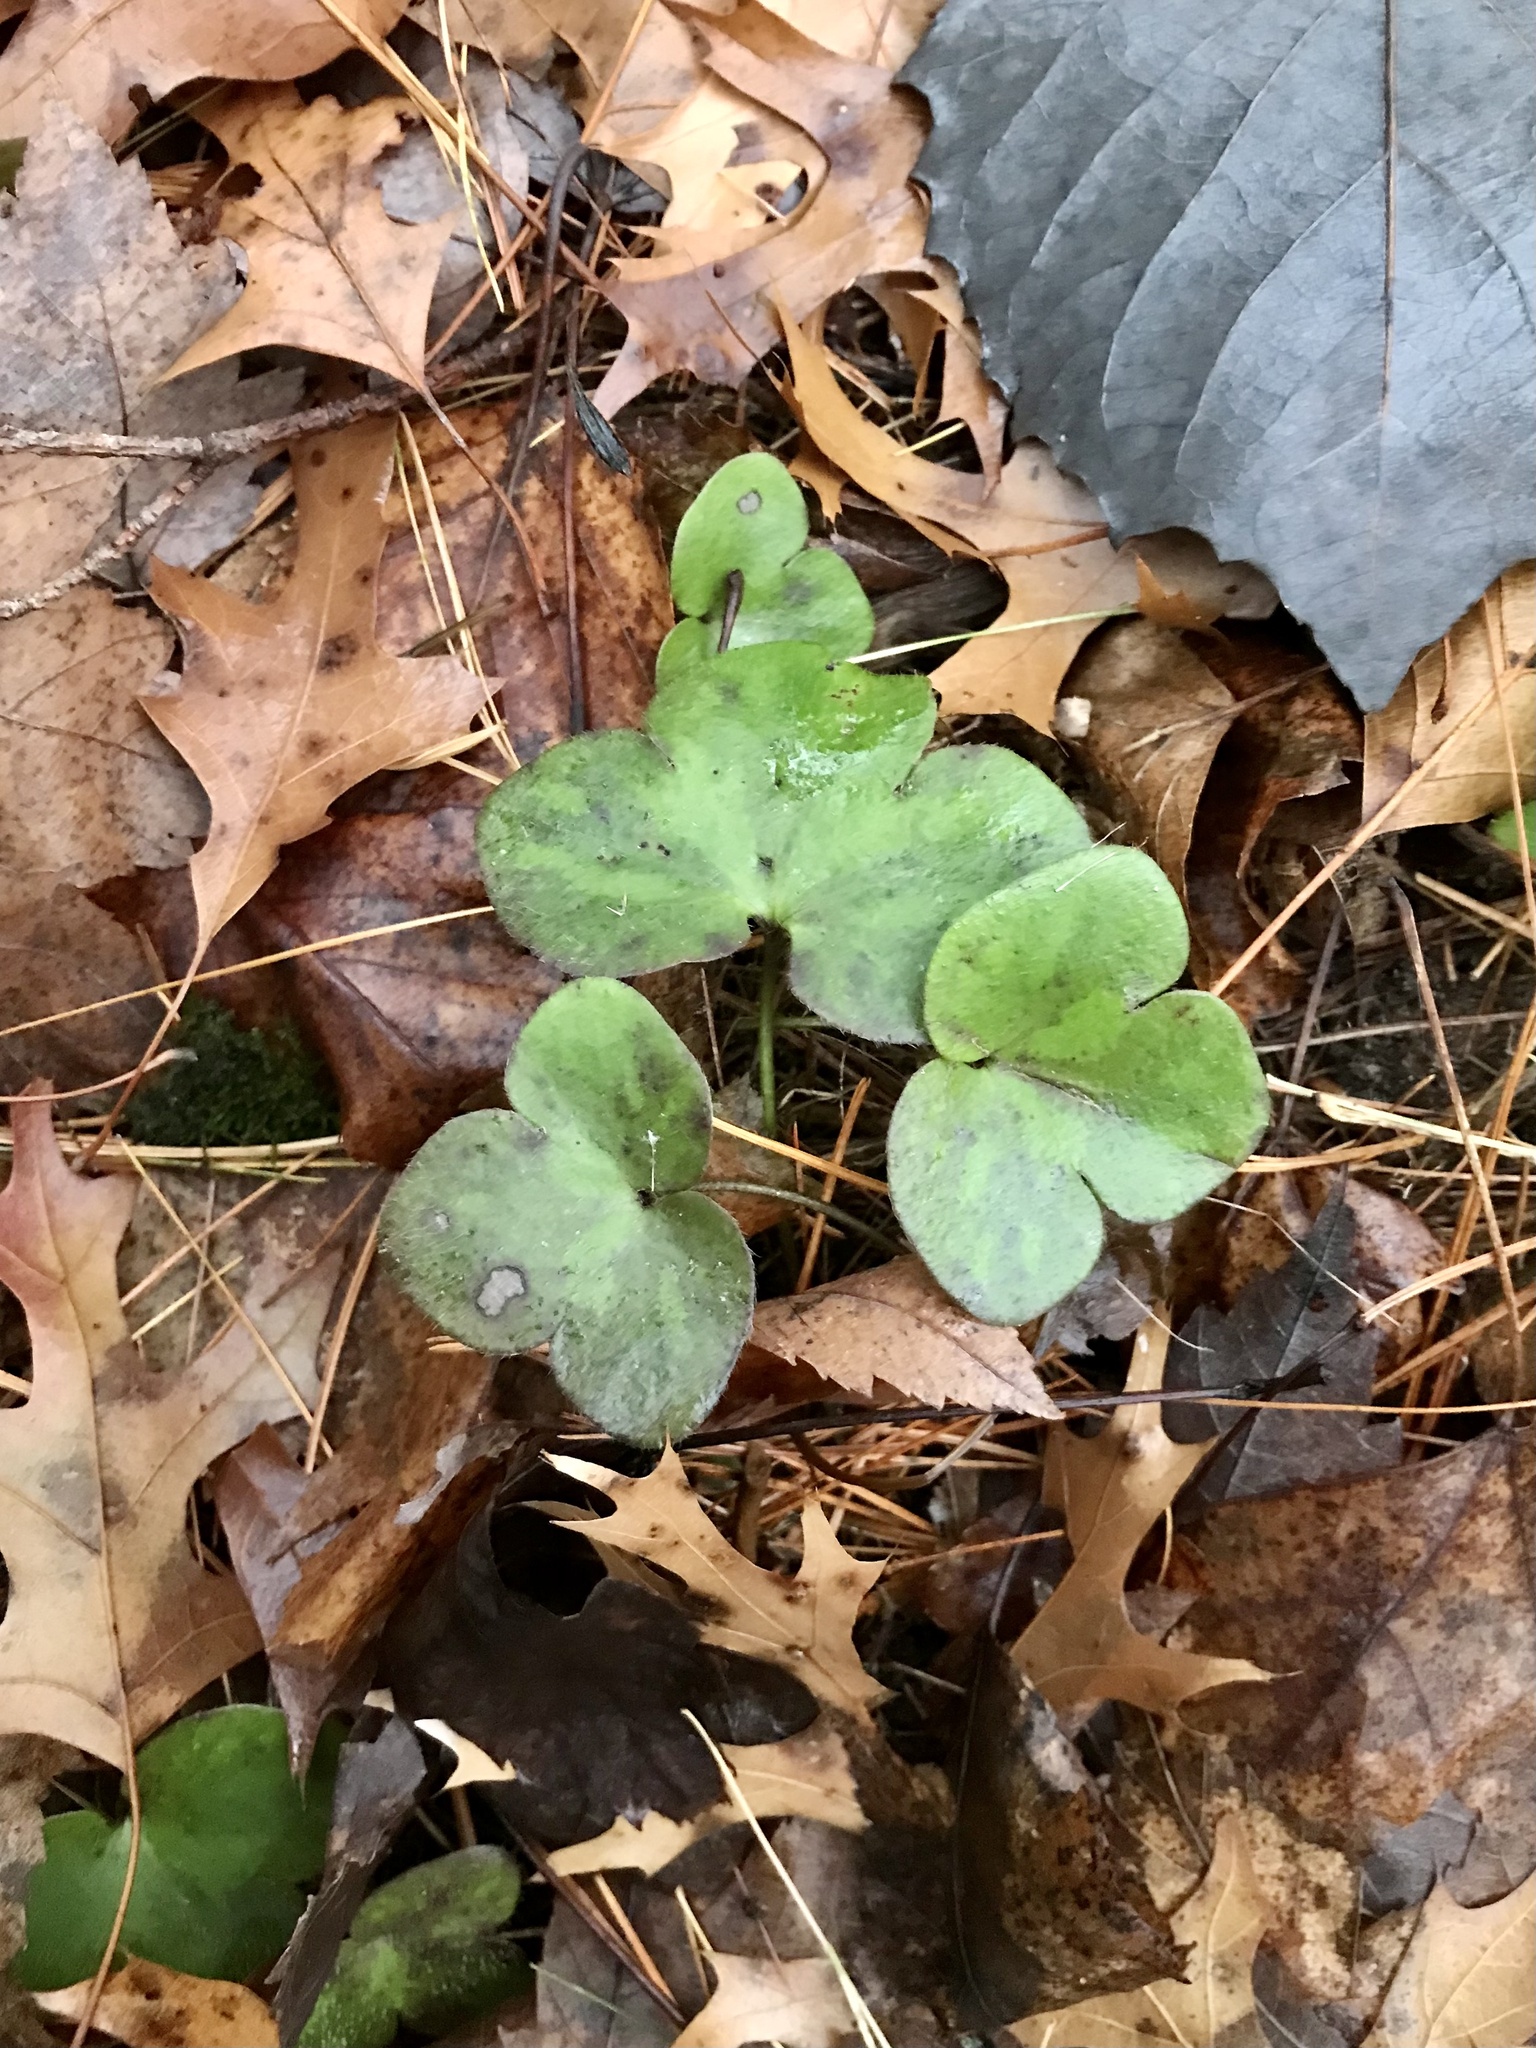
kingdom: Plantae
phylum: Tracheophyta
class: Magnoliopsida
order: Ranunculales
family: Ranunculaceae
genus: Hepatica
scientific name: Hepatica americana
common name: American hepatica
